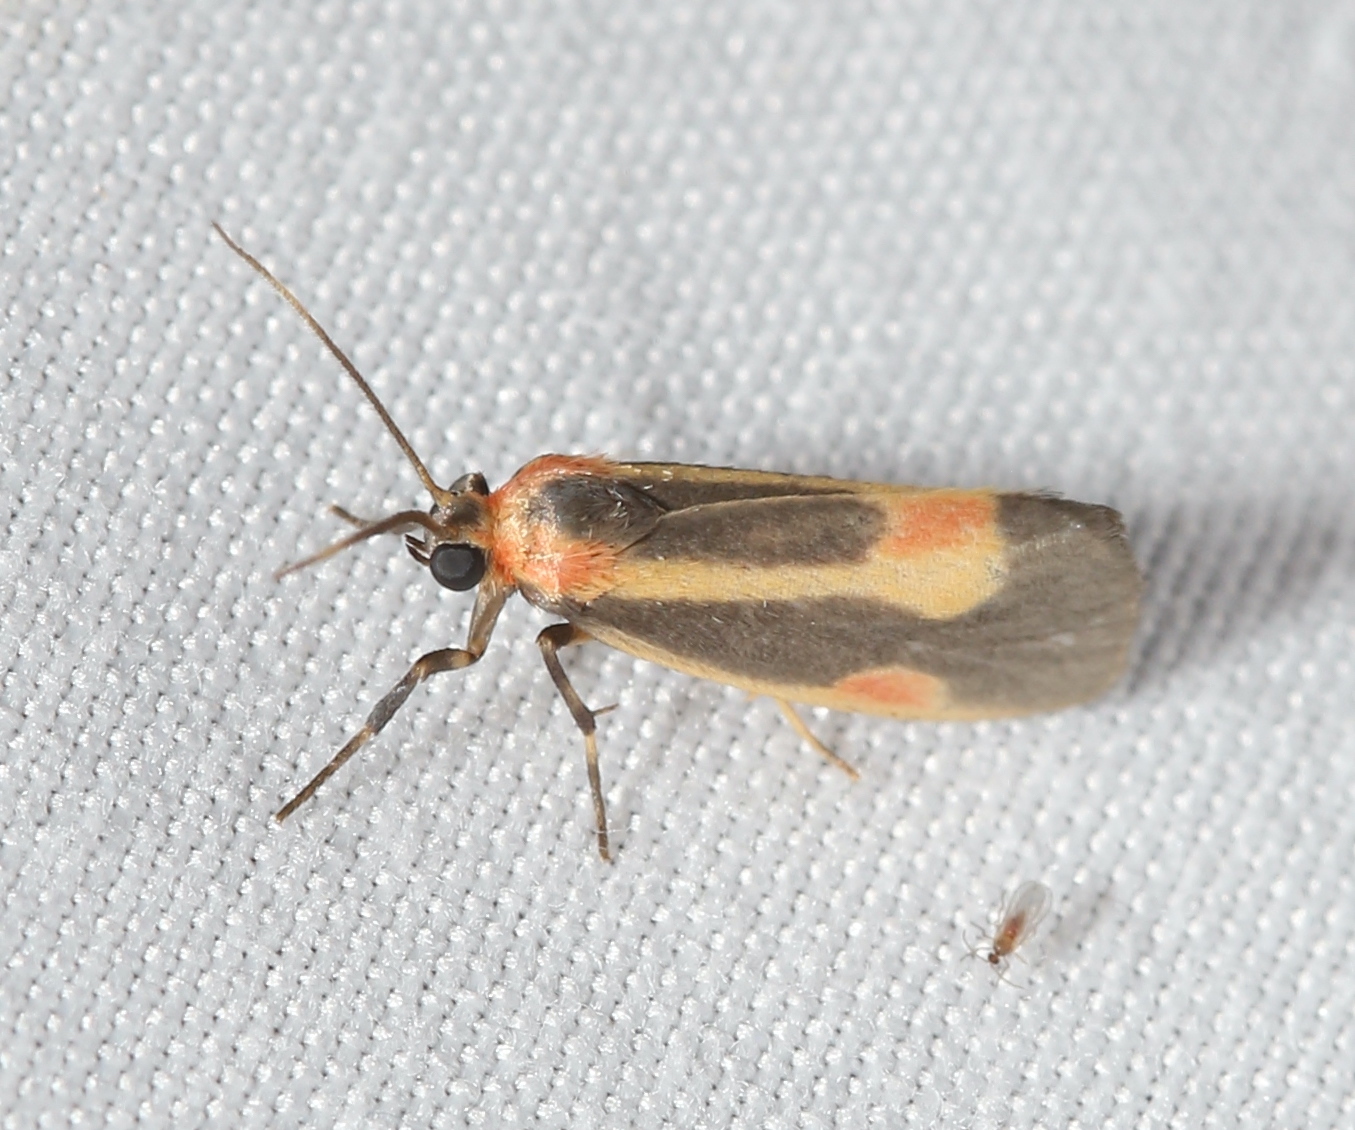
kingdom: Animalia
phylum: Arthropoda
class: Insecta
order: Lepidoptera
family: Erebidae
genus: Cisthene
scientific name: Cisthene packardii
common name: Packard's lichen moth
